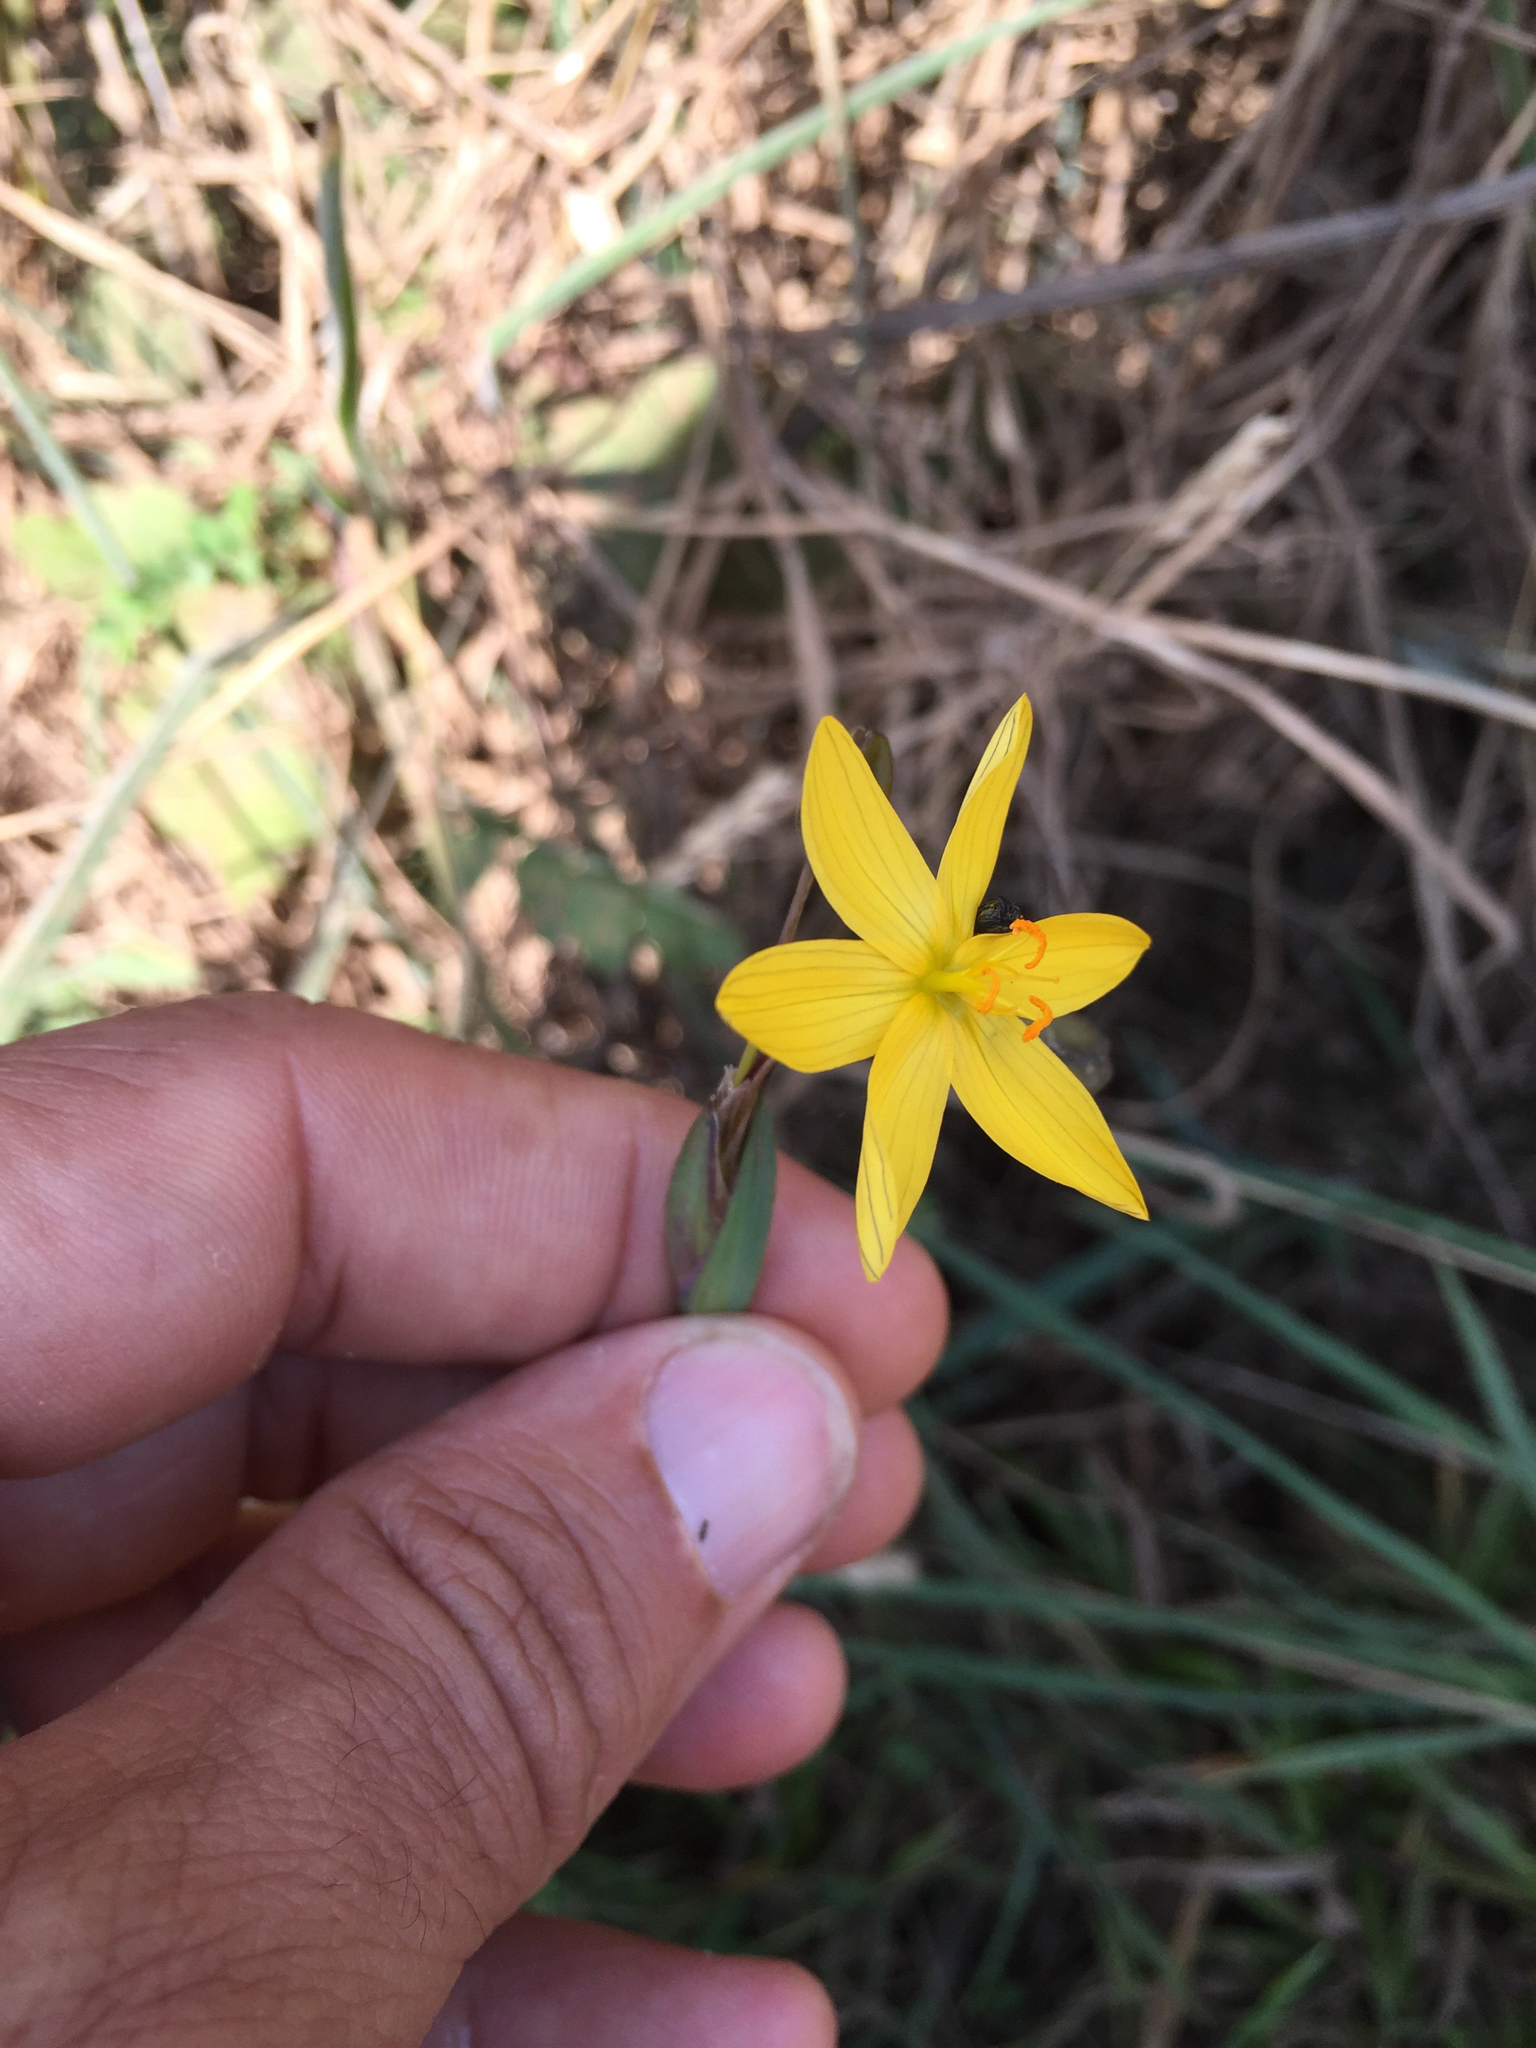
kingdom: Plantae
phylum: Tracheophyta
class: Liliopsida
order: Asparagales
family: Iridaceae
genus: Sisyrinchium
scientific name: Sisyrinchium californicum
